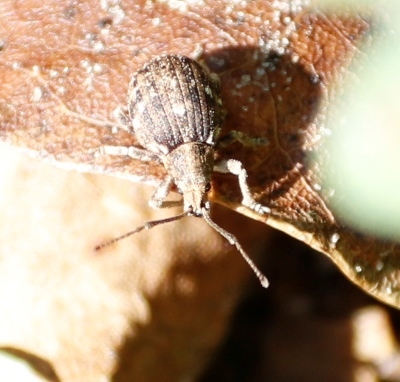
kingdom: Animalia
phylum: Arthropoda
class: Insecta
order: Coleoptera
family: Curculionidae
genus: Ellimenistes
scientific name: Ellimenistes laesicollis
